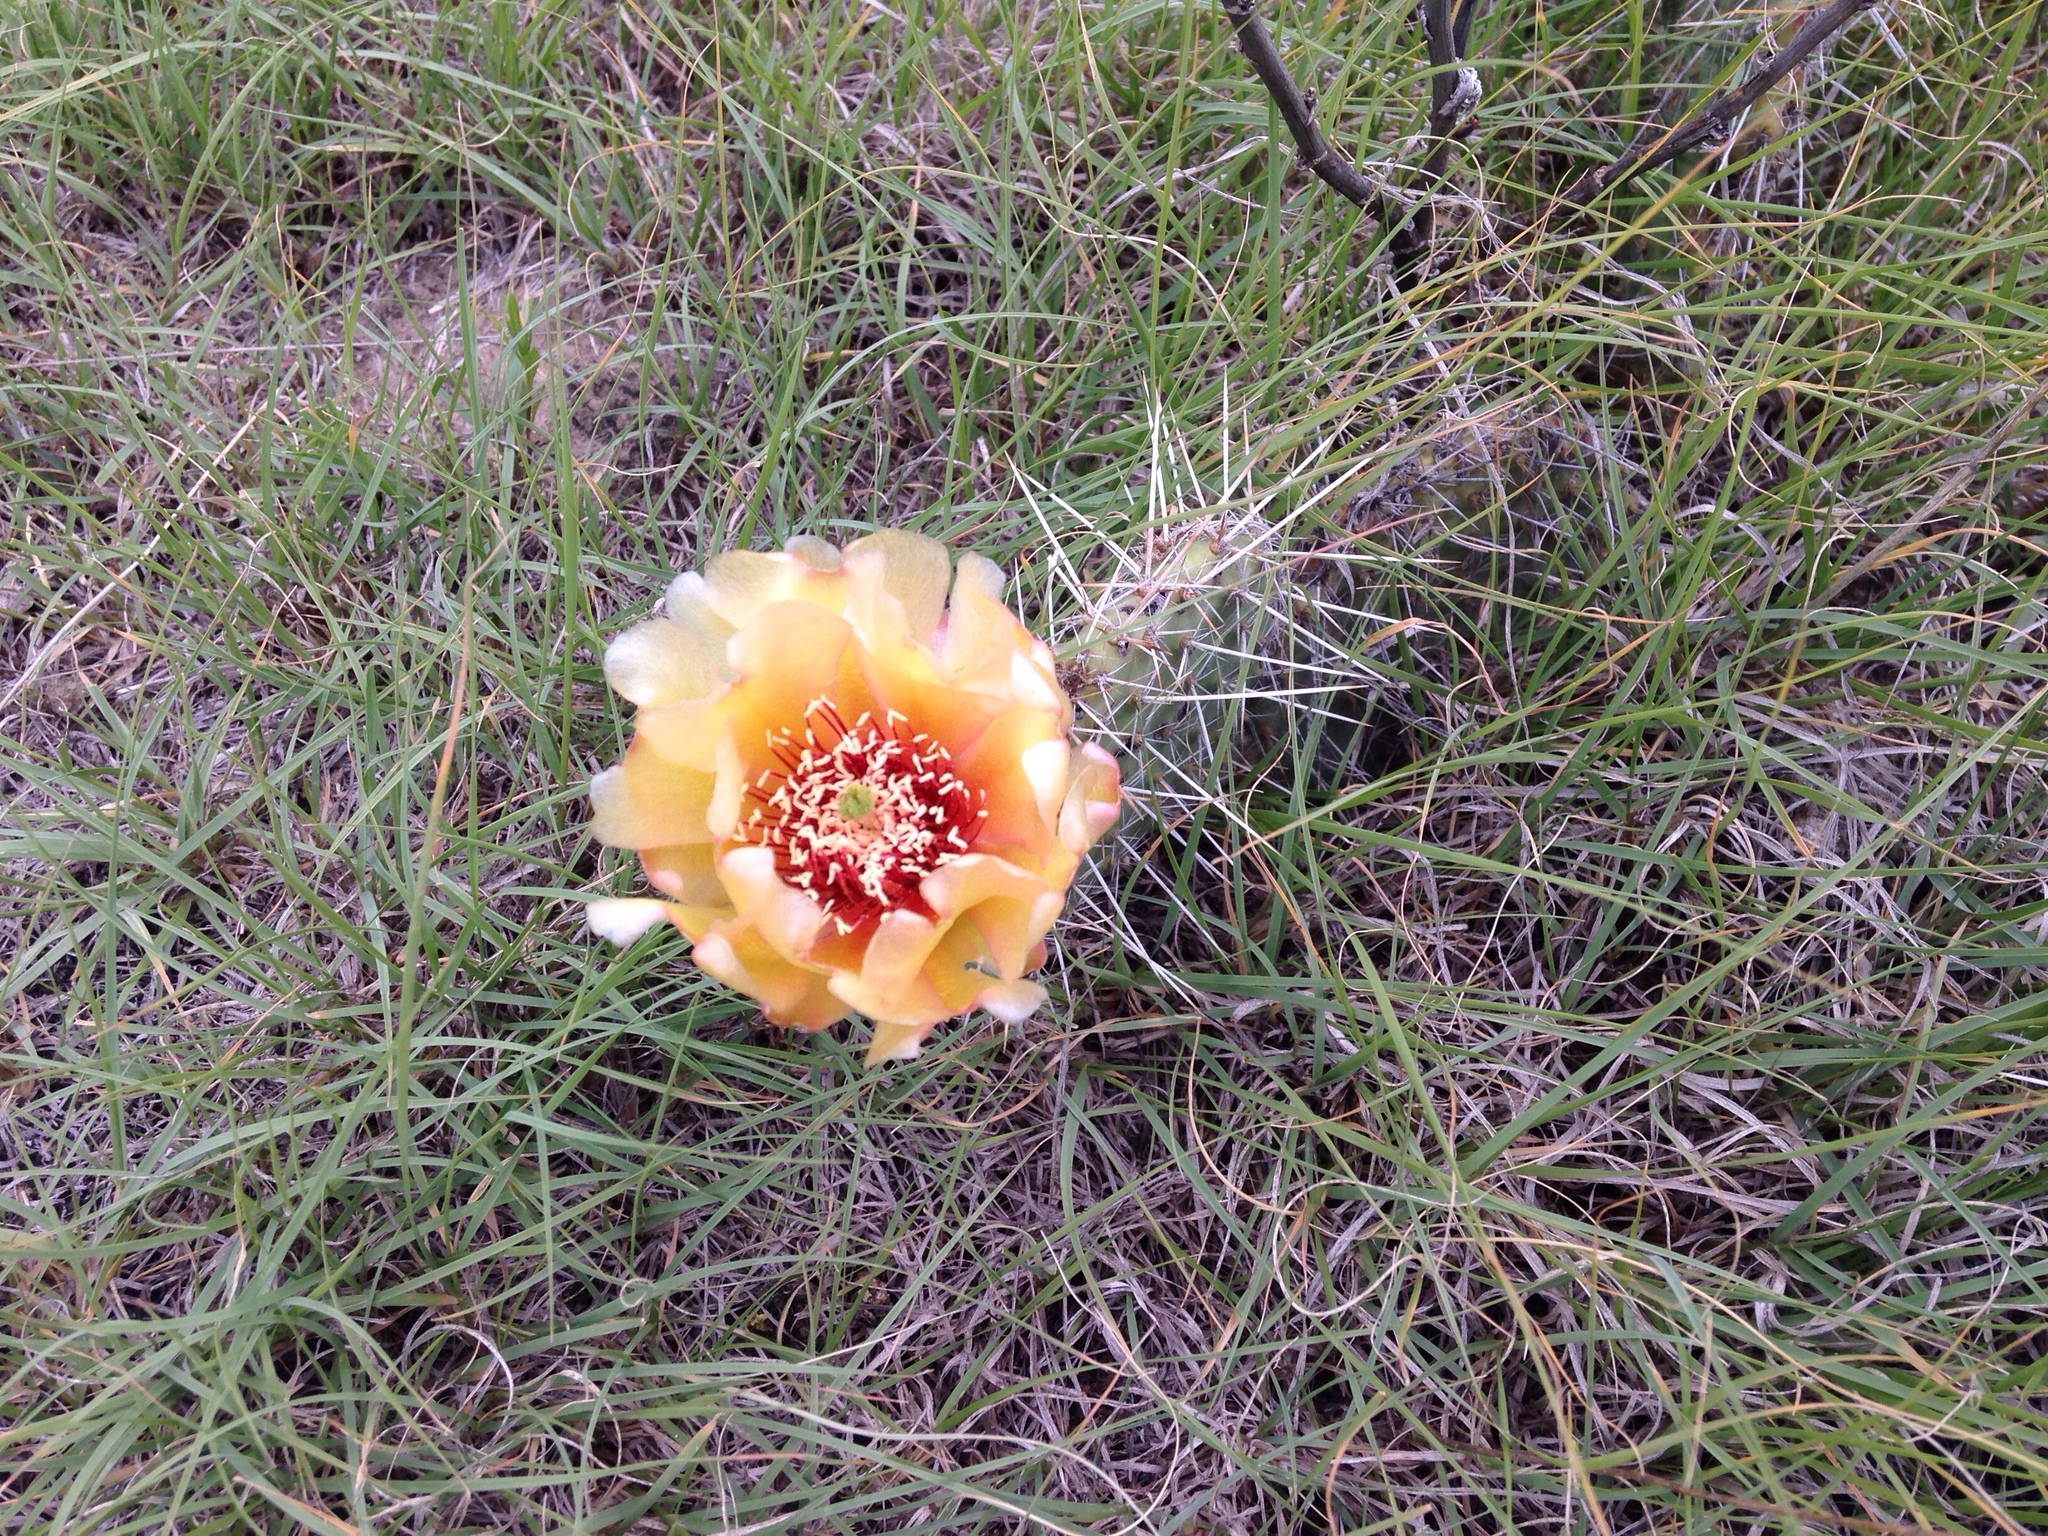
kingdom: Plantae
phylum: Tracheophyta
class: Magnoliopsida
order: Caryophyllales
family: Cactaceae
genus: Opuntia
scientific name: Opuntia polyacantha
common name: Plains prickly-pear
